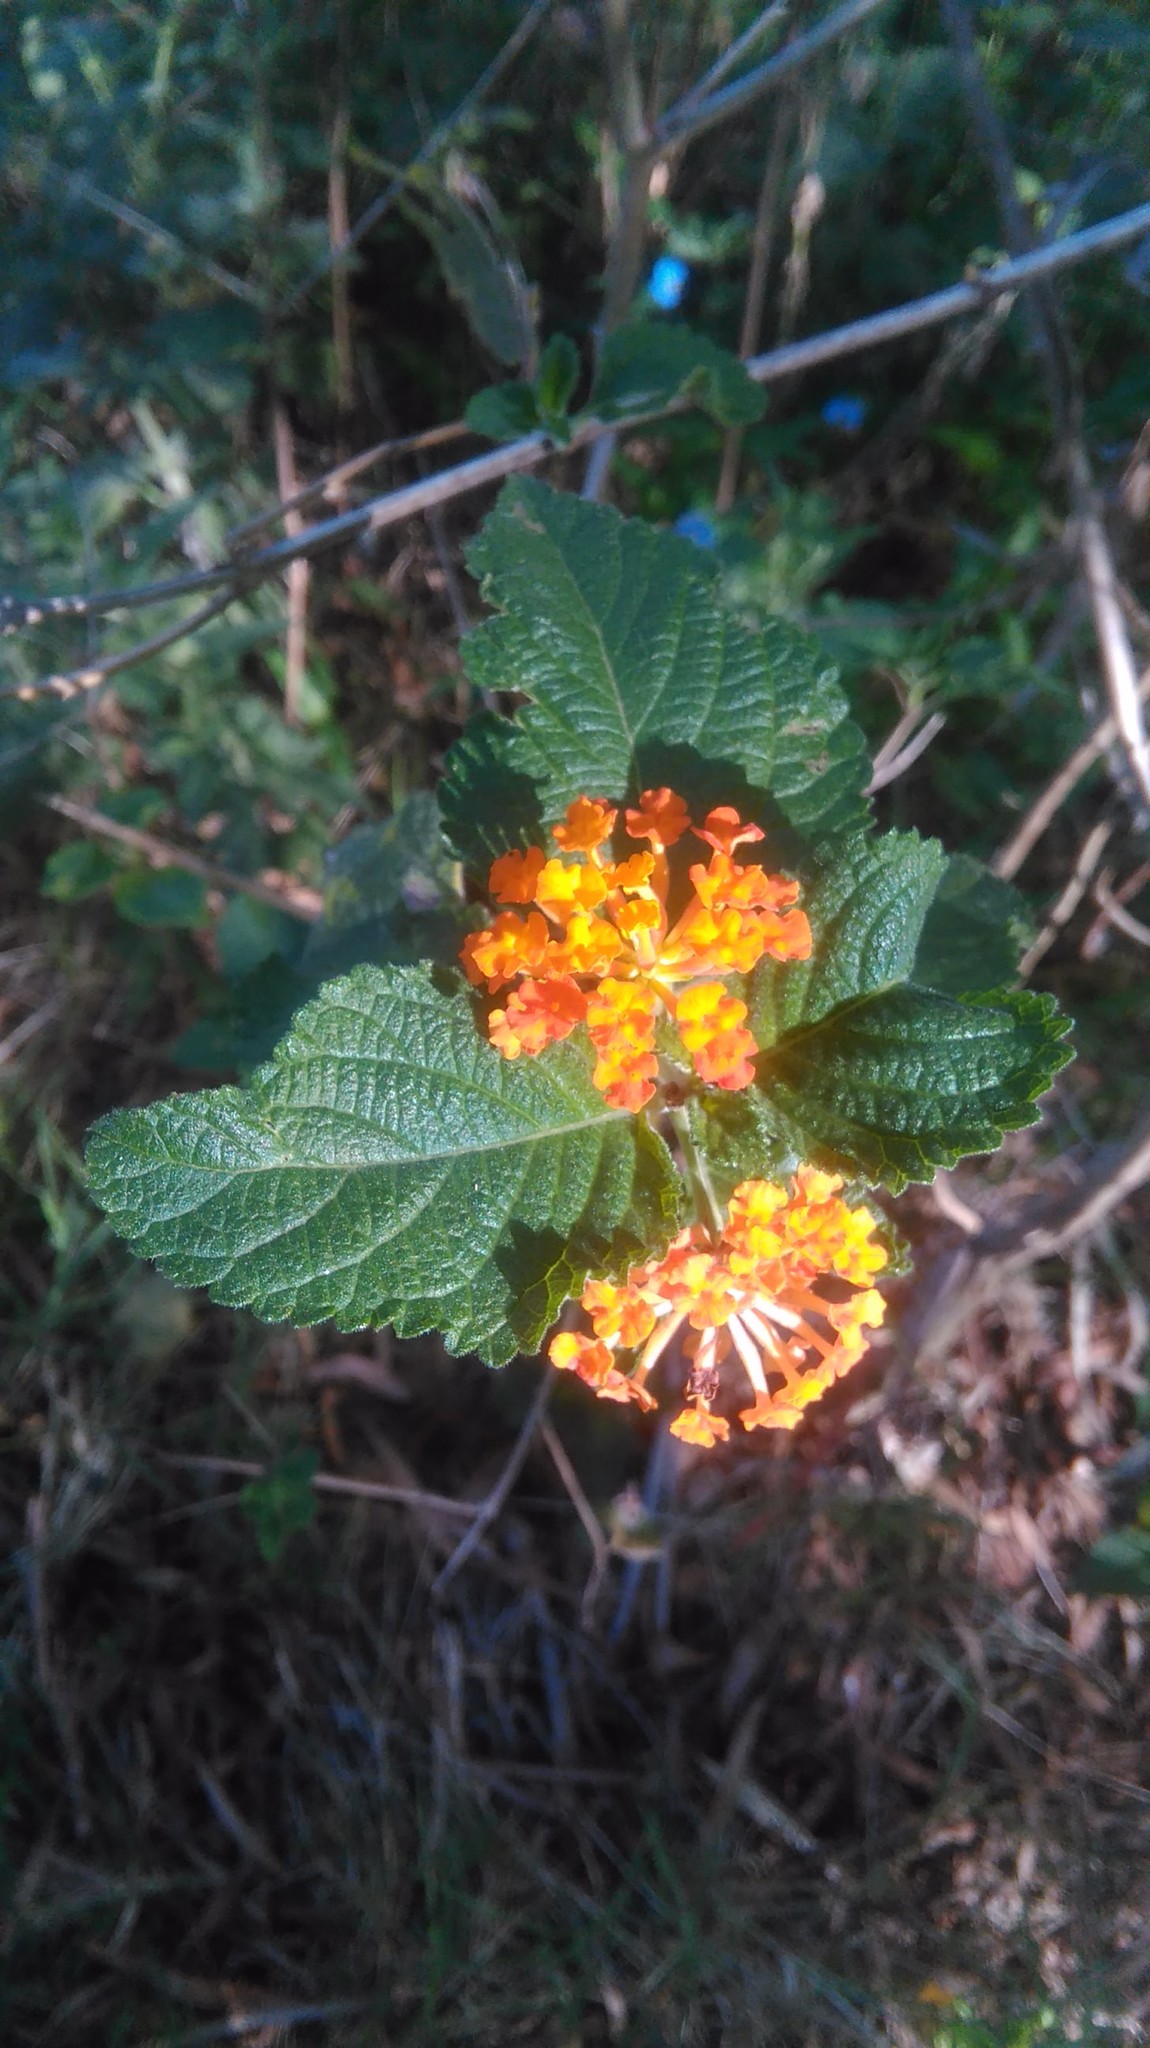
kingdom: Plantae
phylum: Tracheophyta
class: Magnoliopsida
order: Lamiales
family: Verbenaceae
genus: Lantana
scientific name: Lantana camara
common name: Lantana
